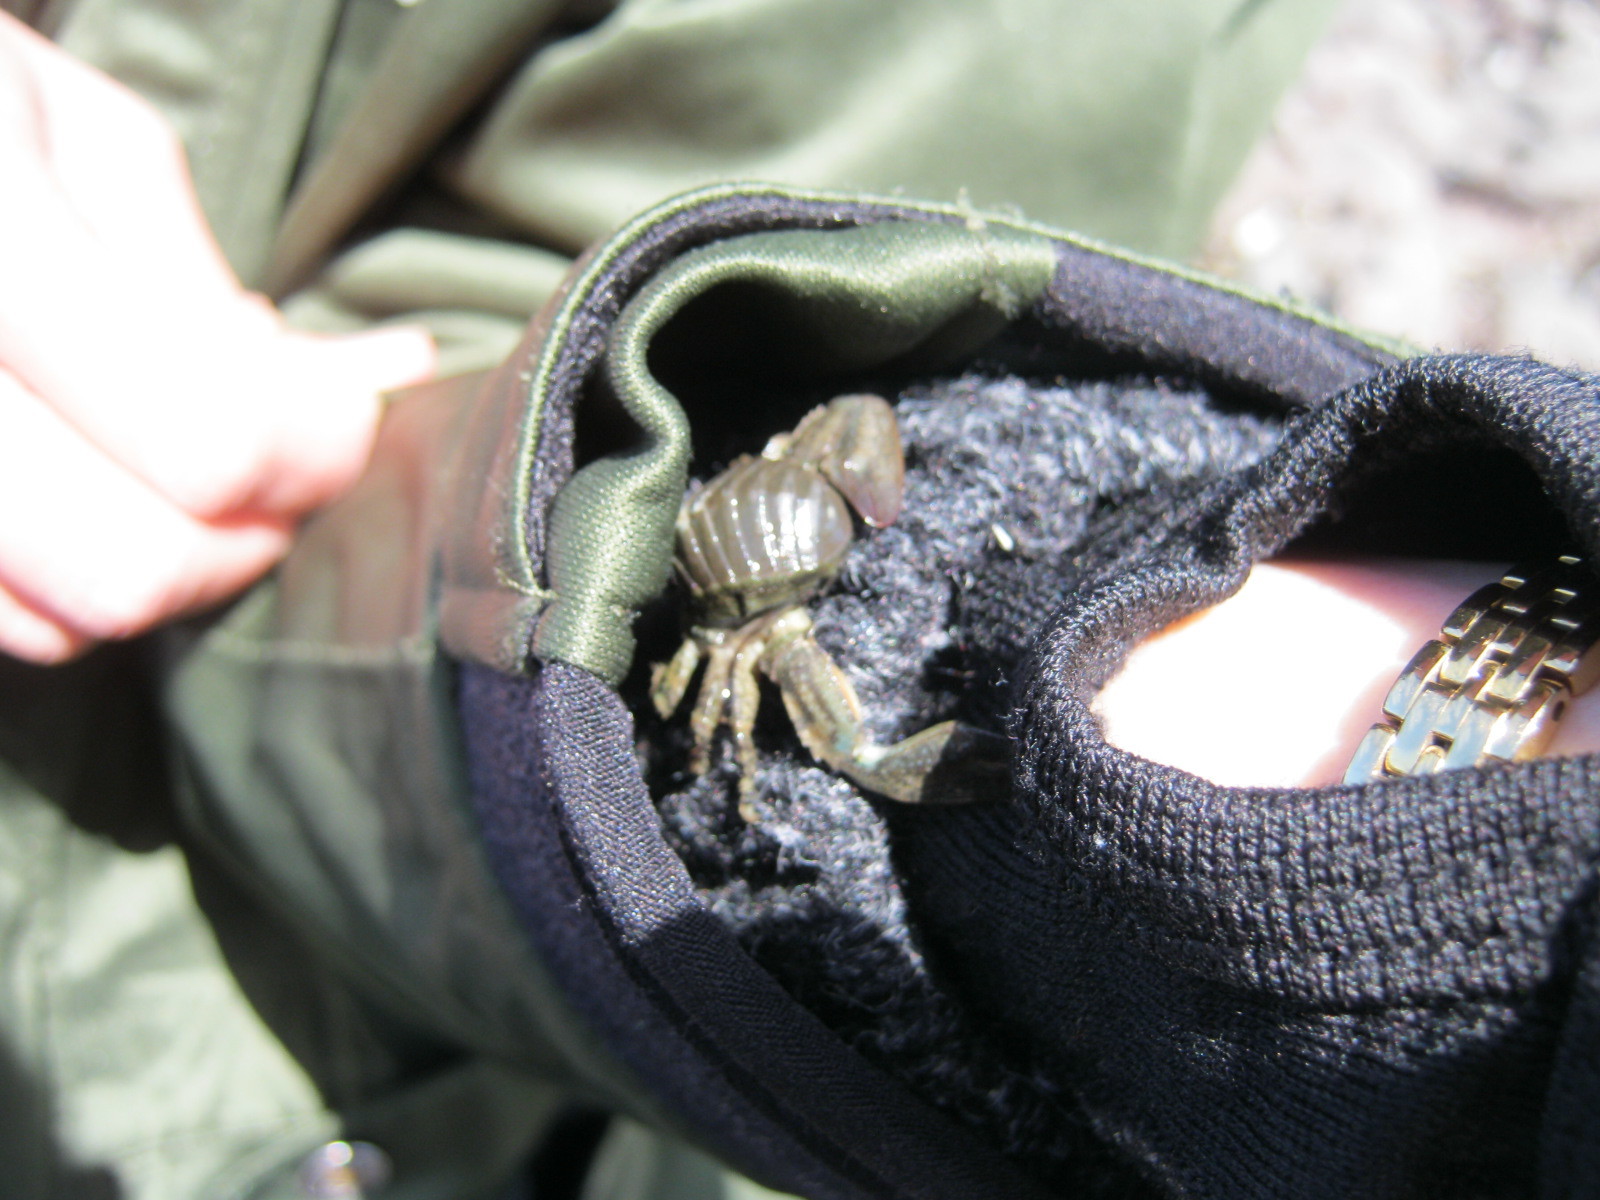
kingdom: Animalia
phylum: Mollusca
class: Polyplacophora
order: Chitonida
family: Chitonidae
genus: Chiton
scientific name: Chiton glaucus
